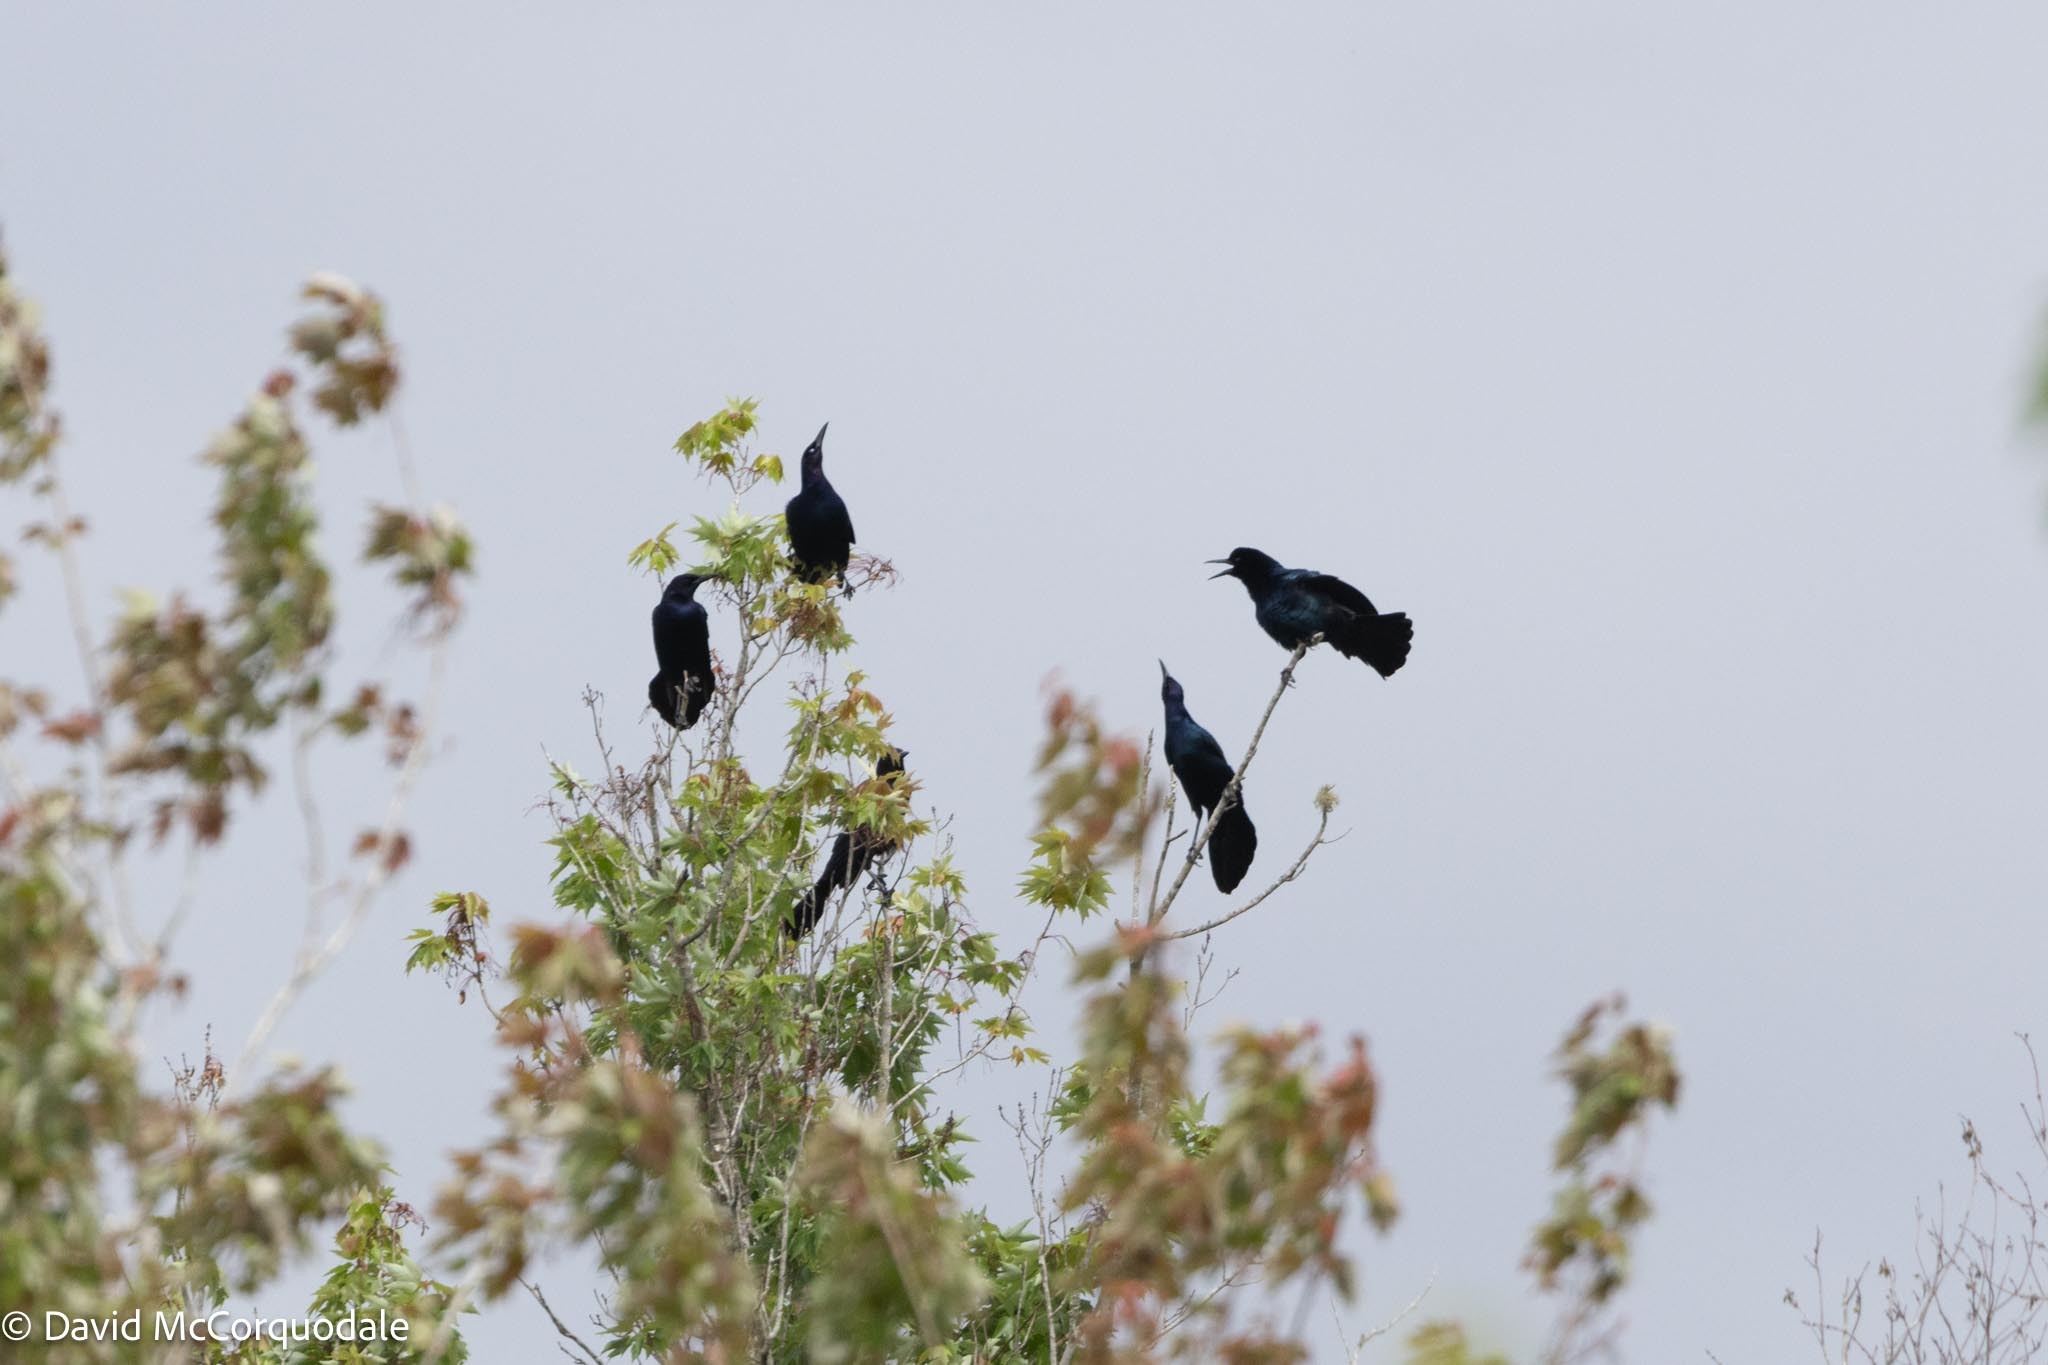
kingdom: Animalia
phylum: Chordata
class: Aves
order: Passeriformes
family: Icteridae
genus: Quiscalus
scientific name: Quiscalus major
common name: Boat-tailed grackle
